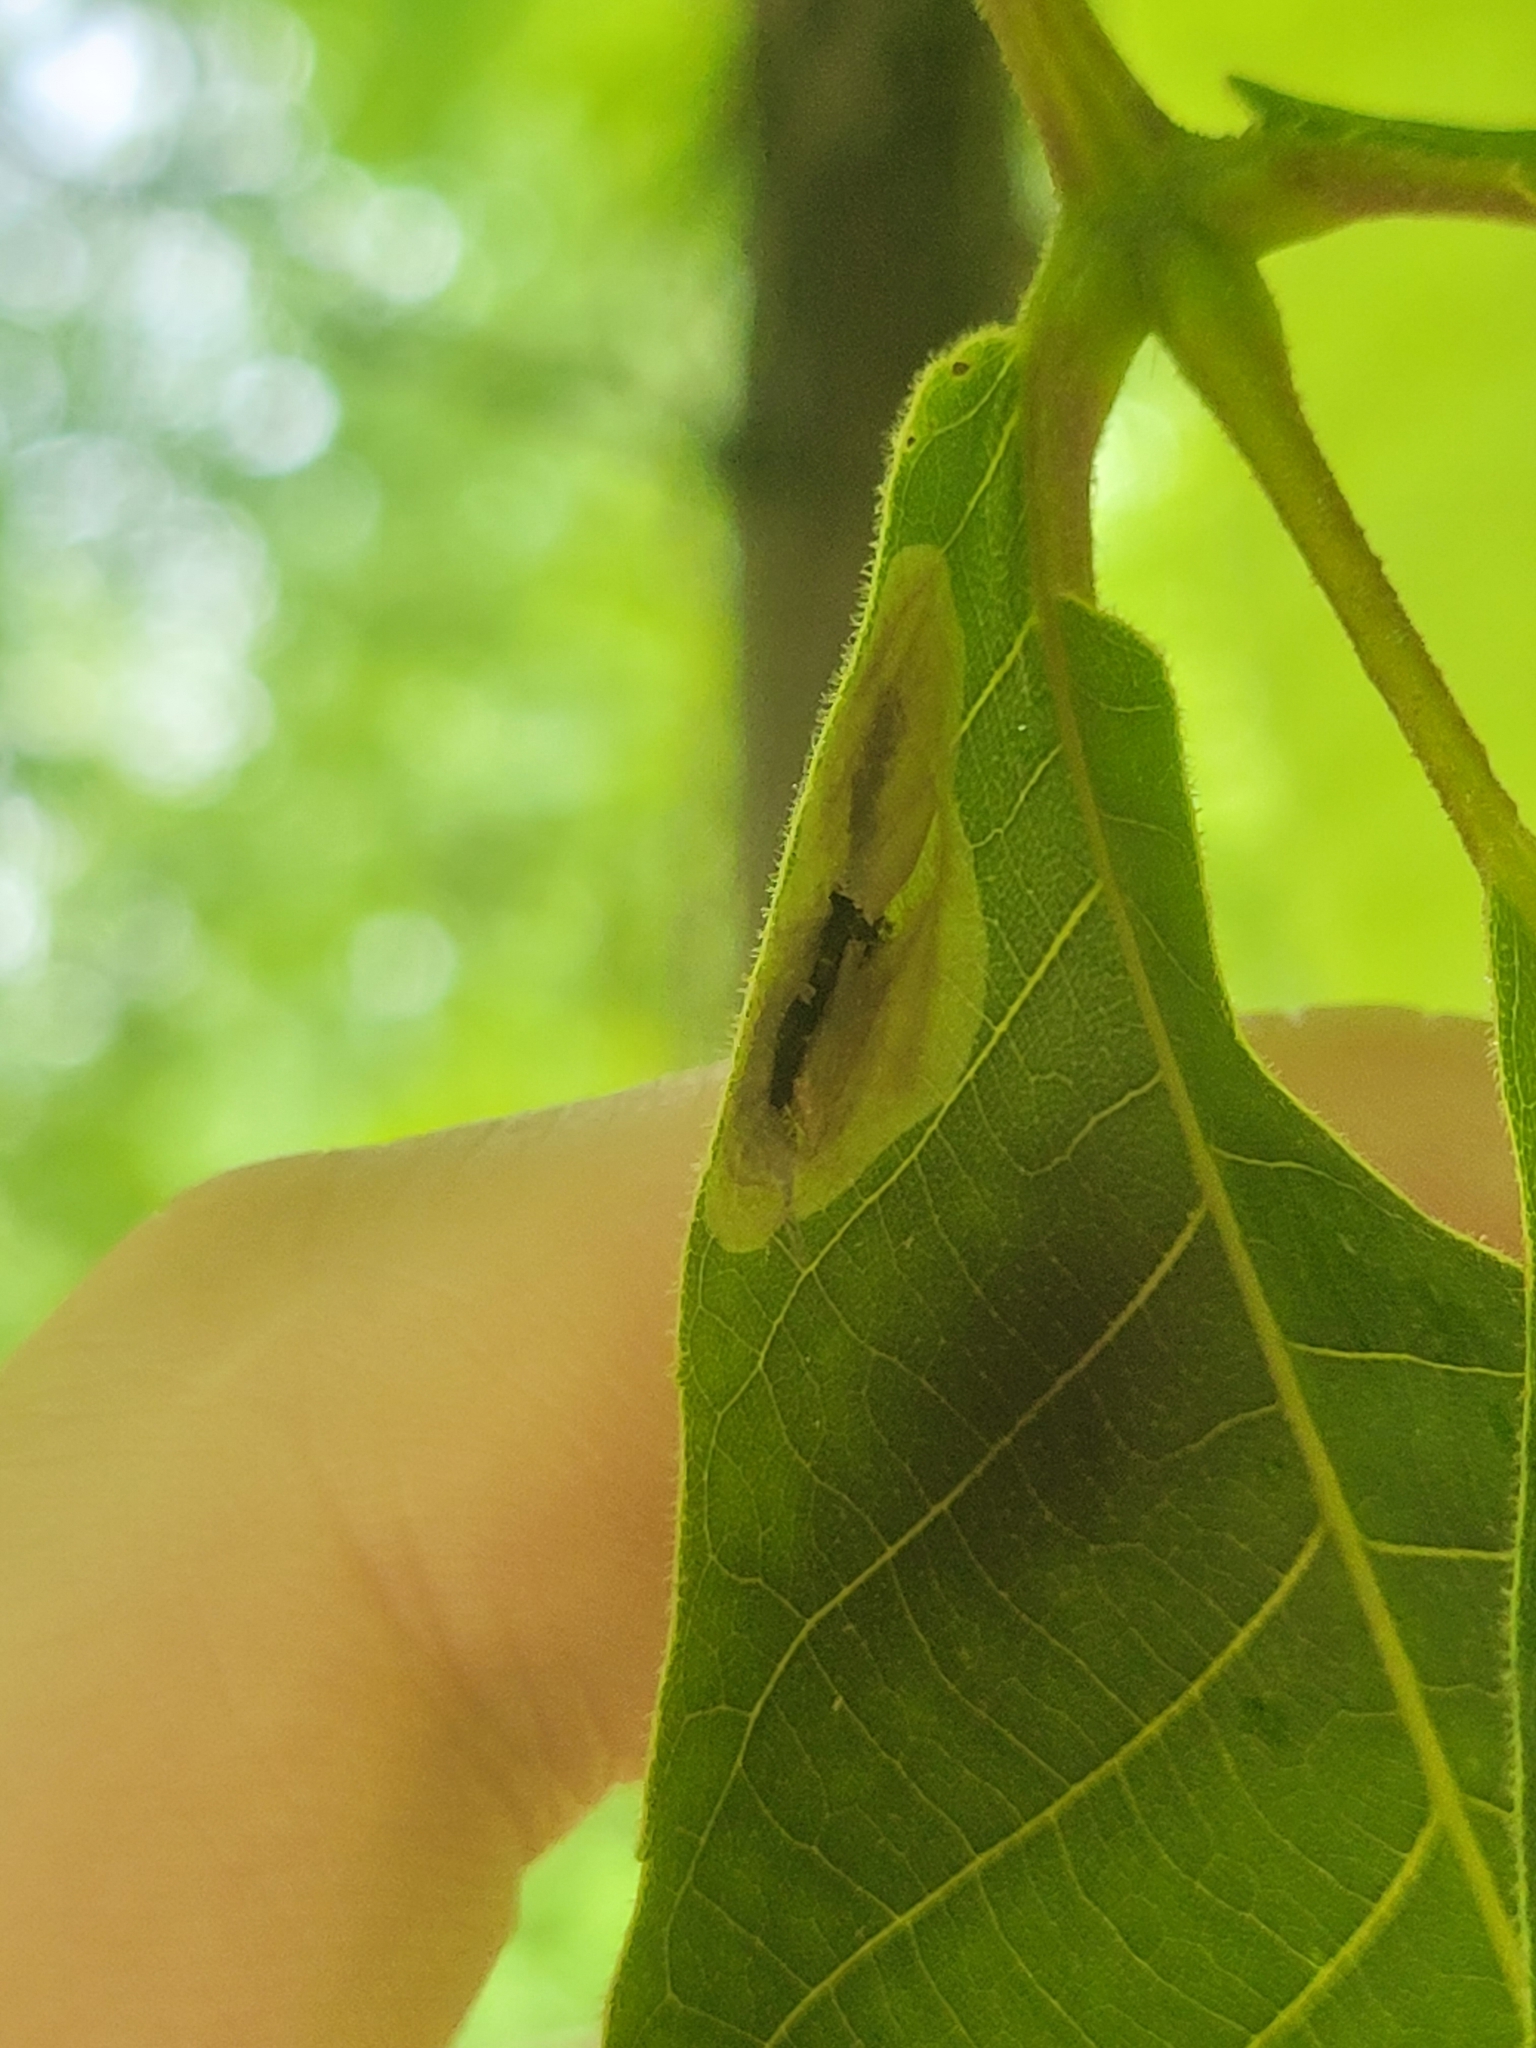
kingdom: Animalia
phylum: Arthropoda
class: Insecta
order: Lepidoptera
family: Gracillariidae
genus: Cameraria
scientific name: Cameraria caryaefoliella
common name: Pecan leafminer moth
